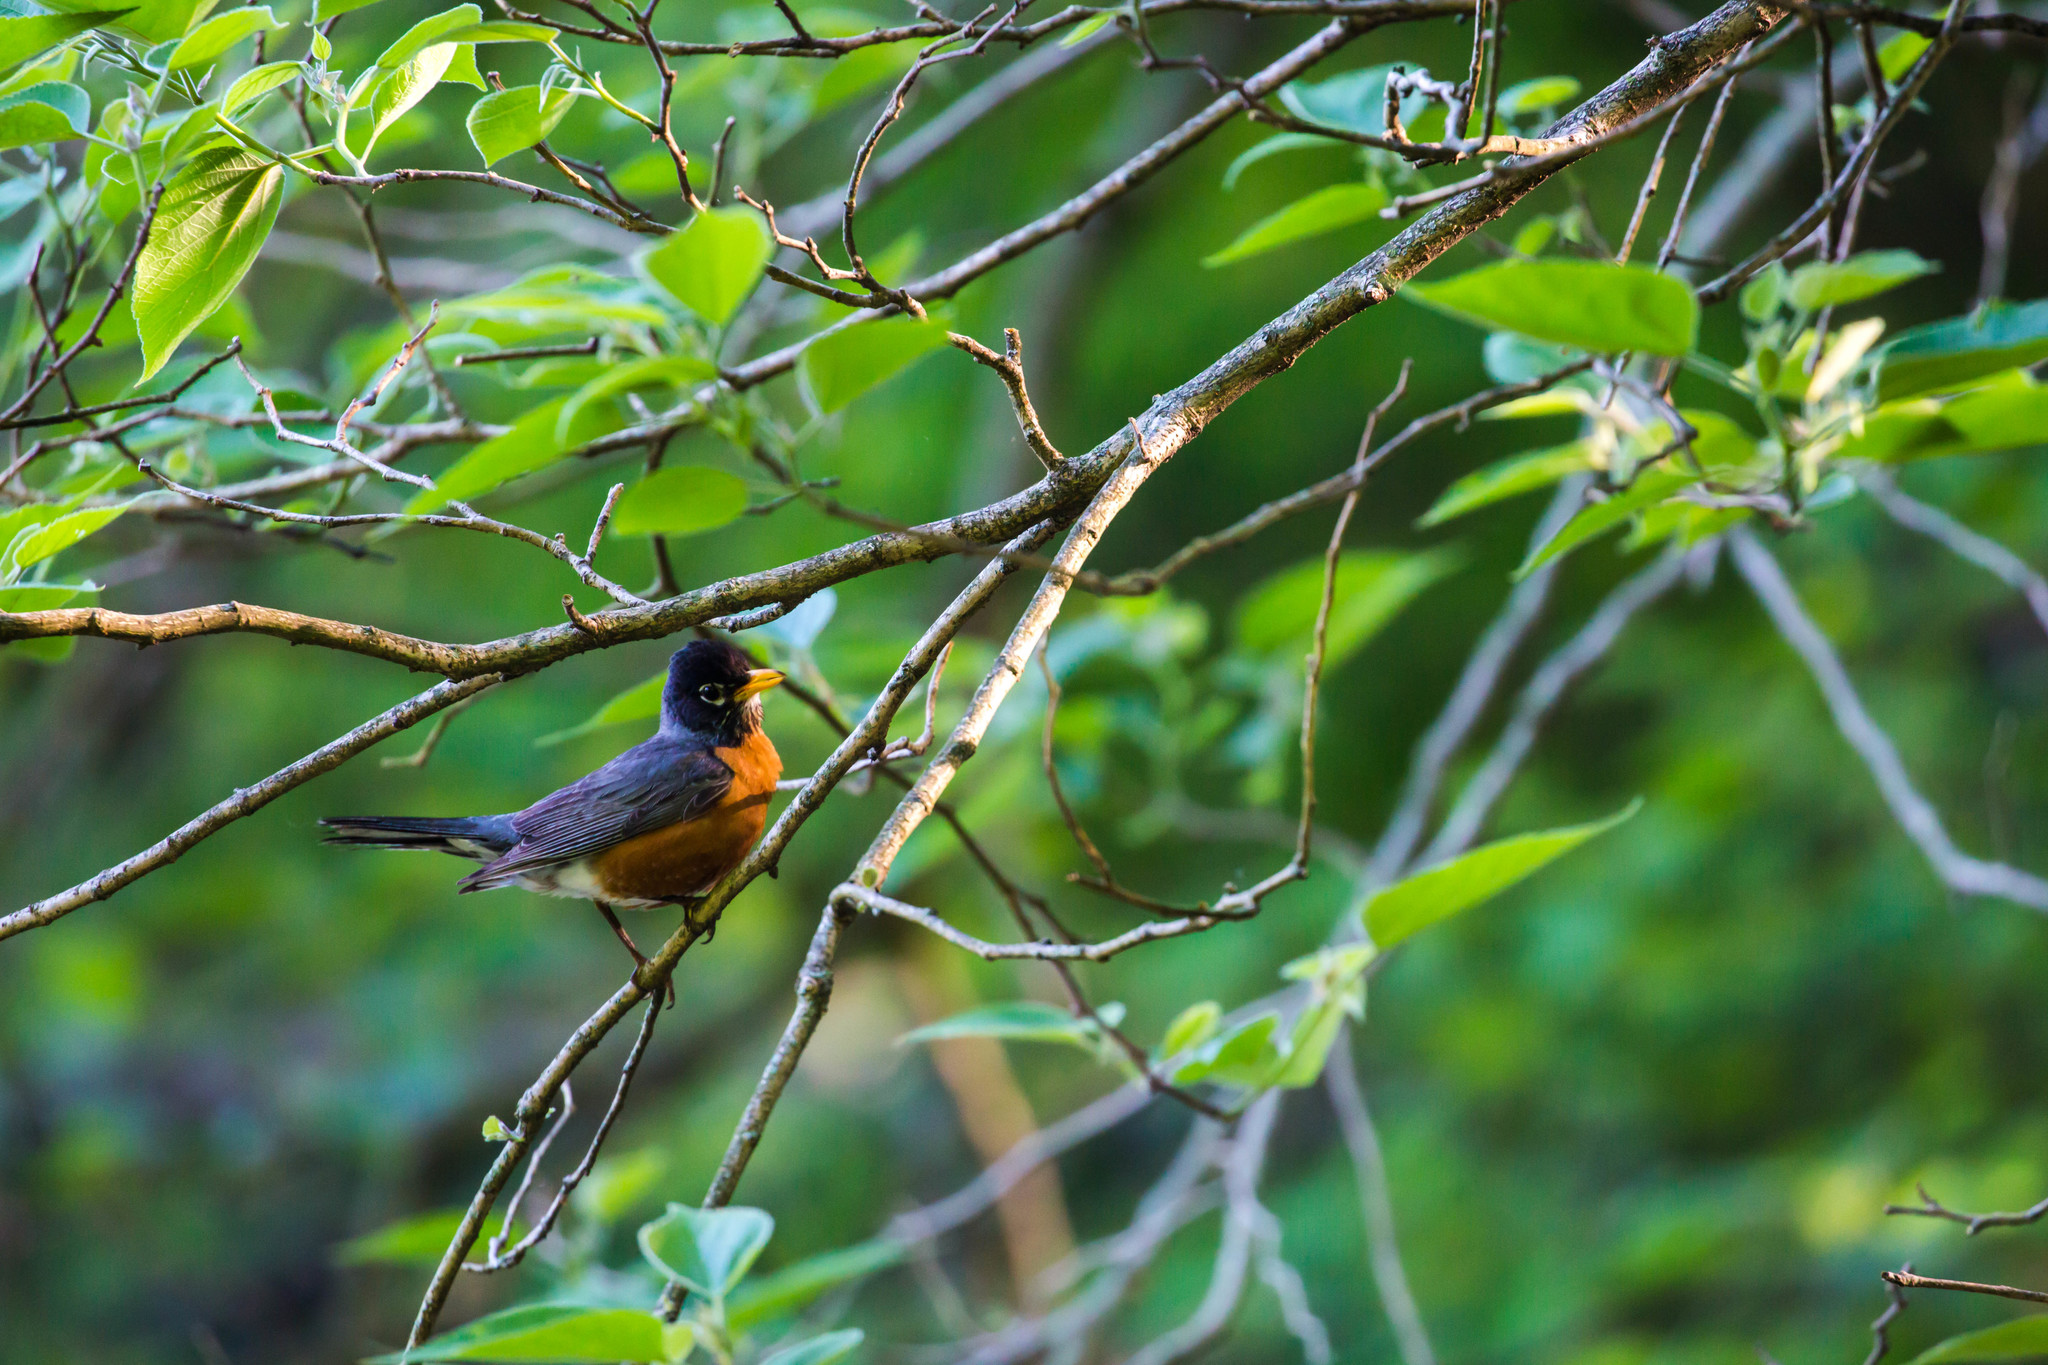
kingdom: Animalia
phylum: Chordata
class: Aves
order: Passeriformes
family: Turdidae
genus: Turdus
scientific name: Turdus migratorius
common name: American robin
